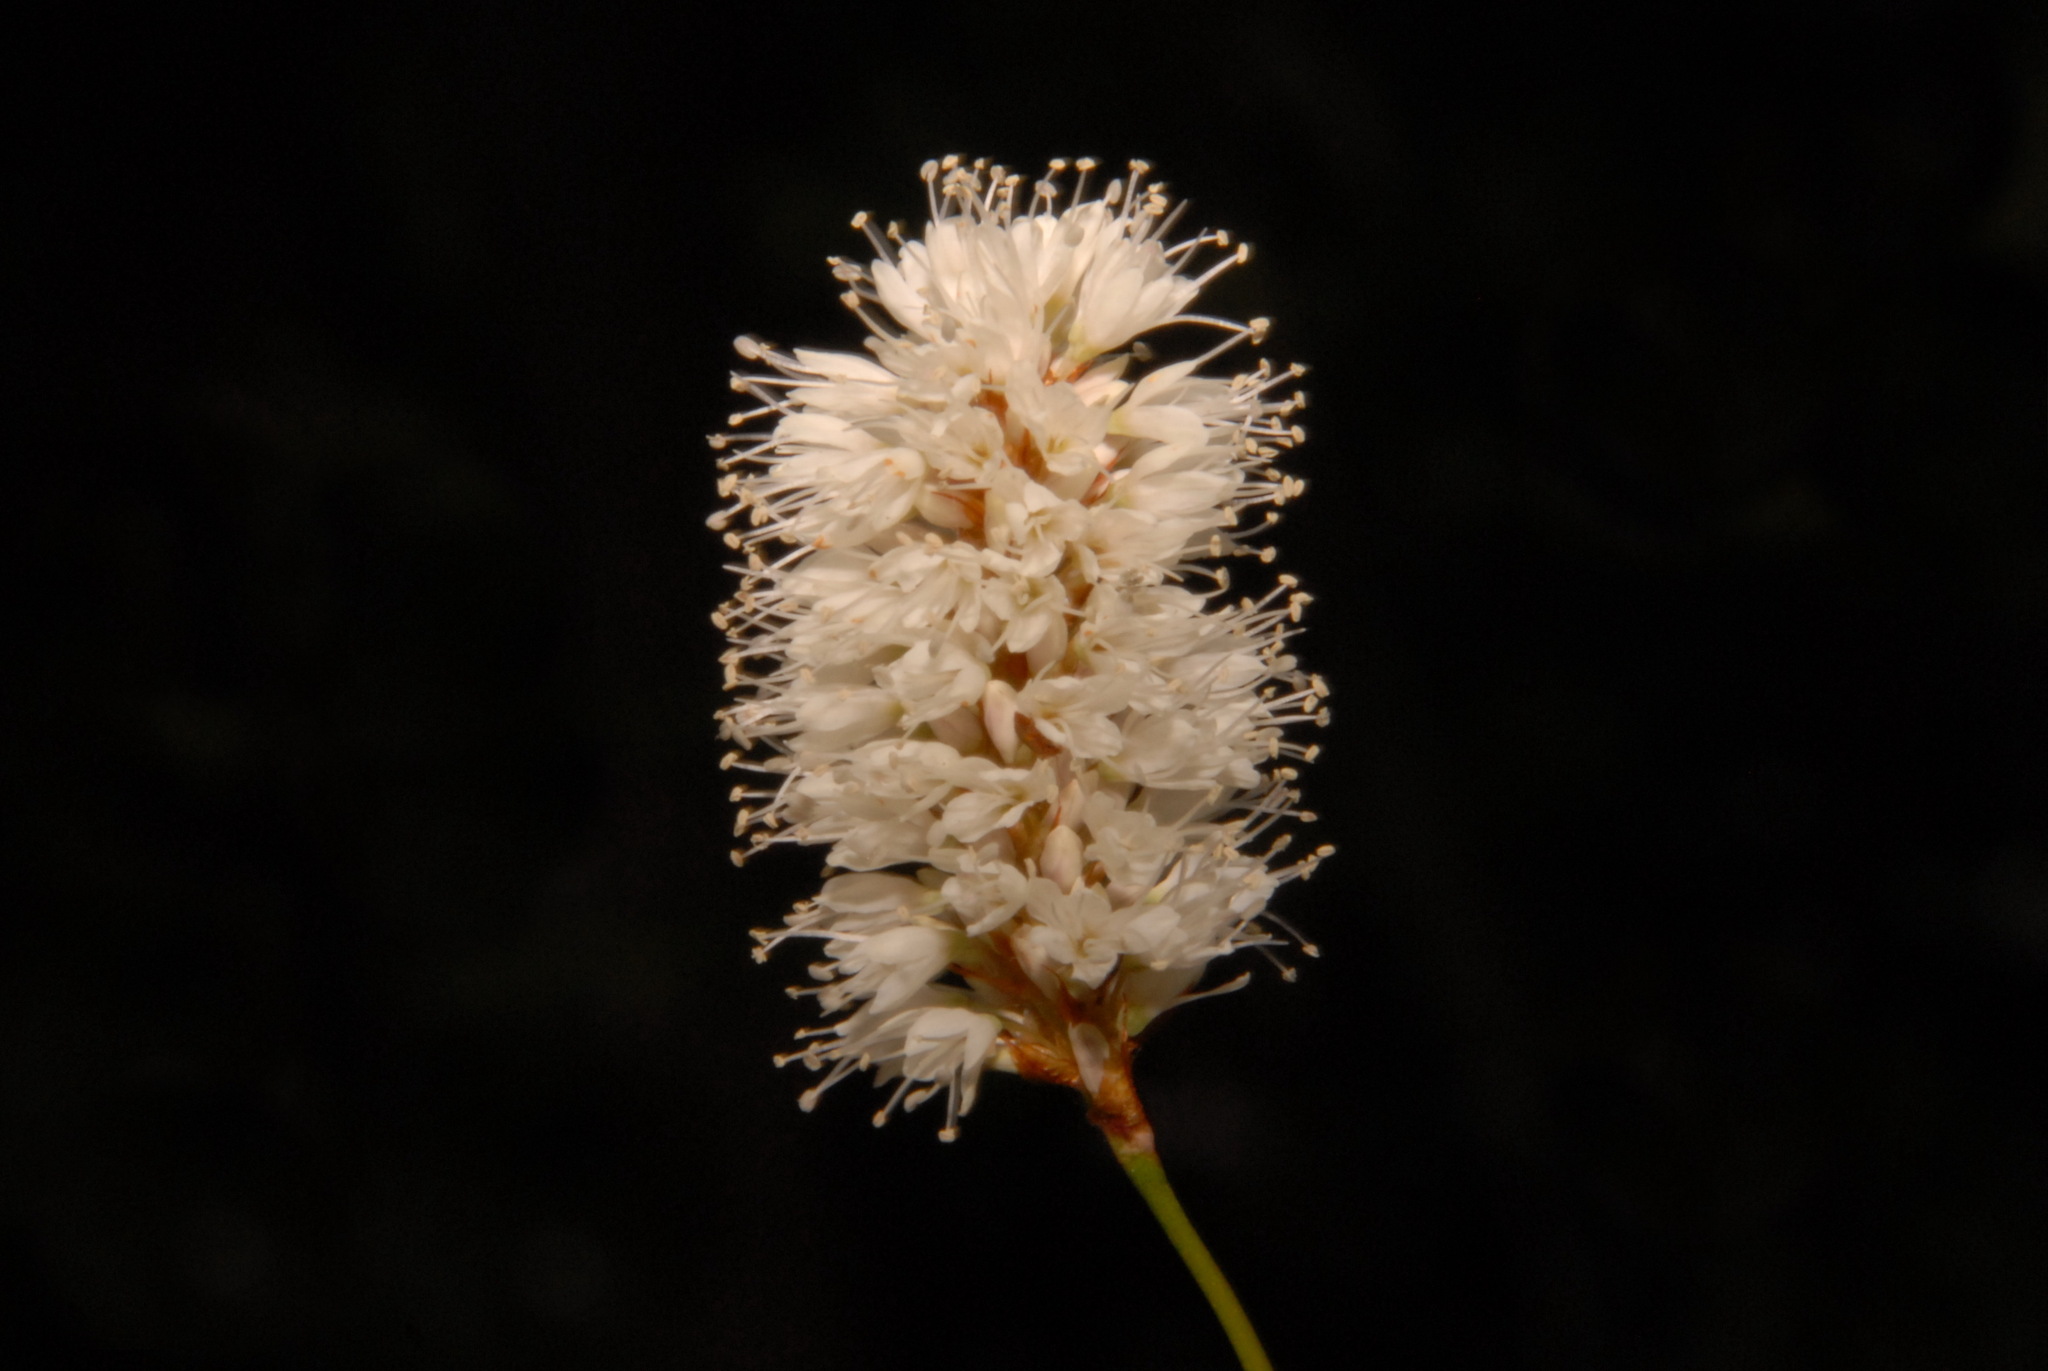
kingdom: Plantae
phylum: Tracheophyta
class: Magnoliopsida
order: Caryophyllales
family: Polygonaceae
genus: Bistorta
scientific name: Bistorta bistortoides
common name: American bistort
